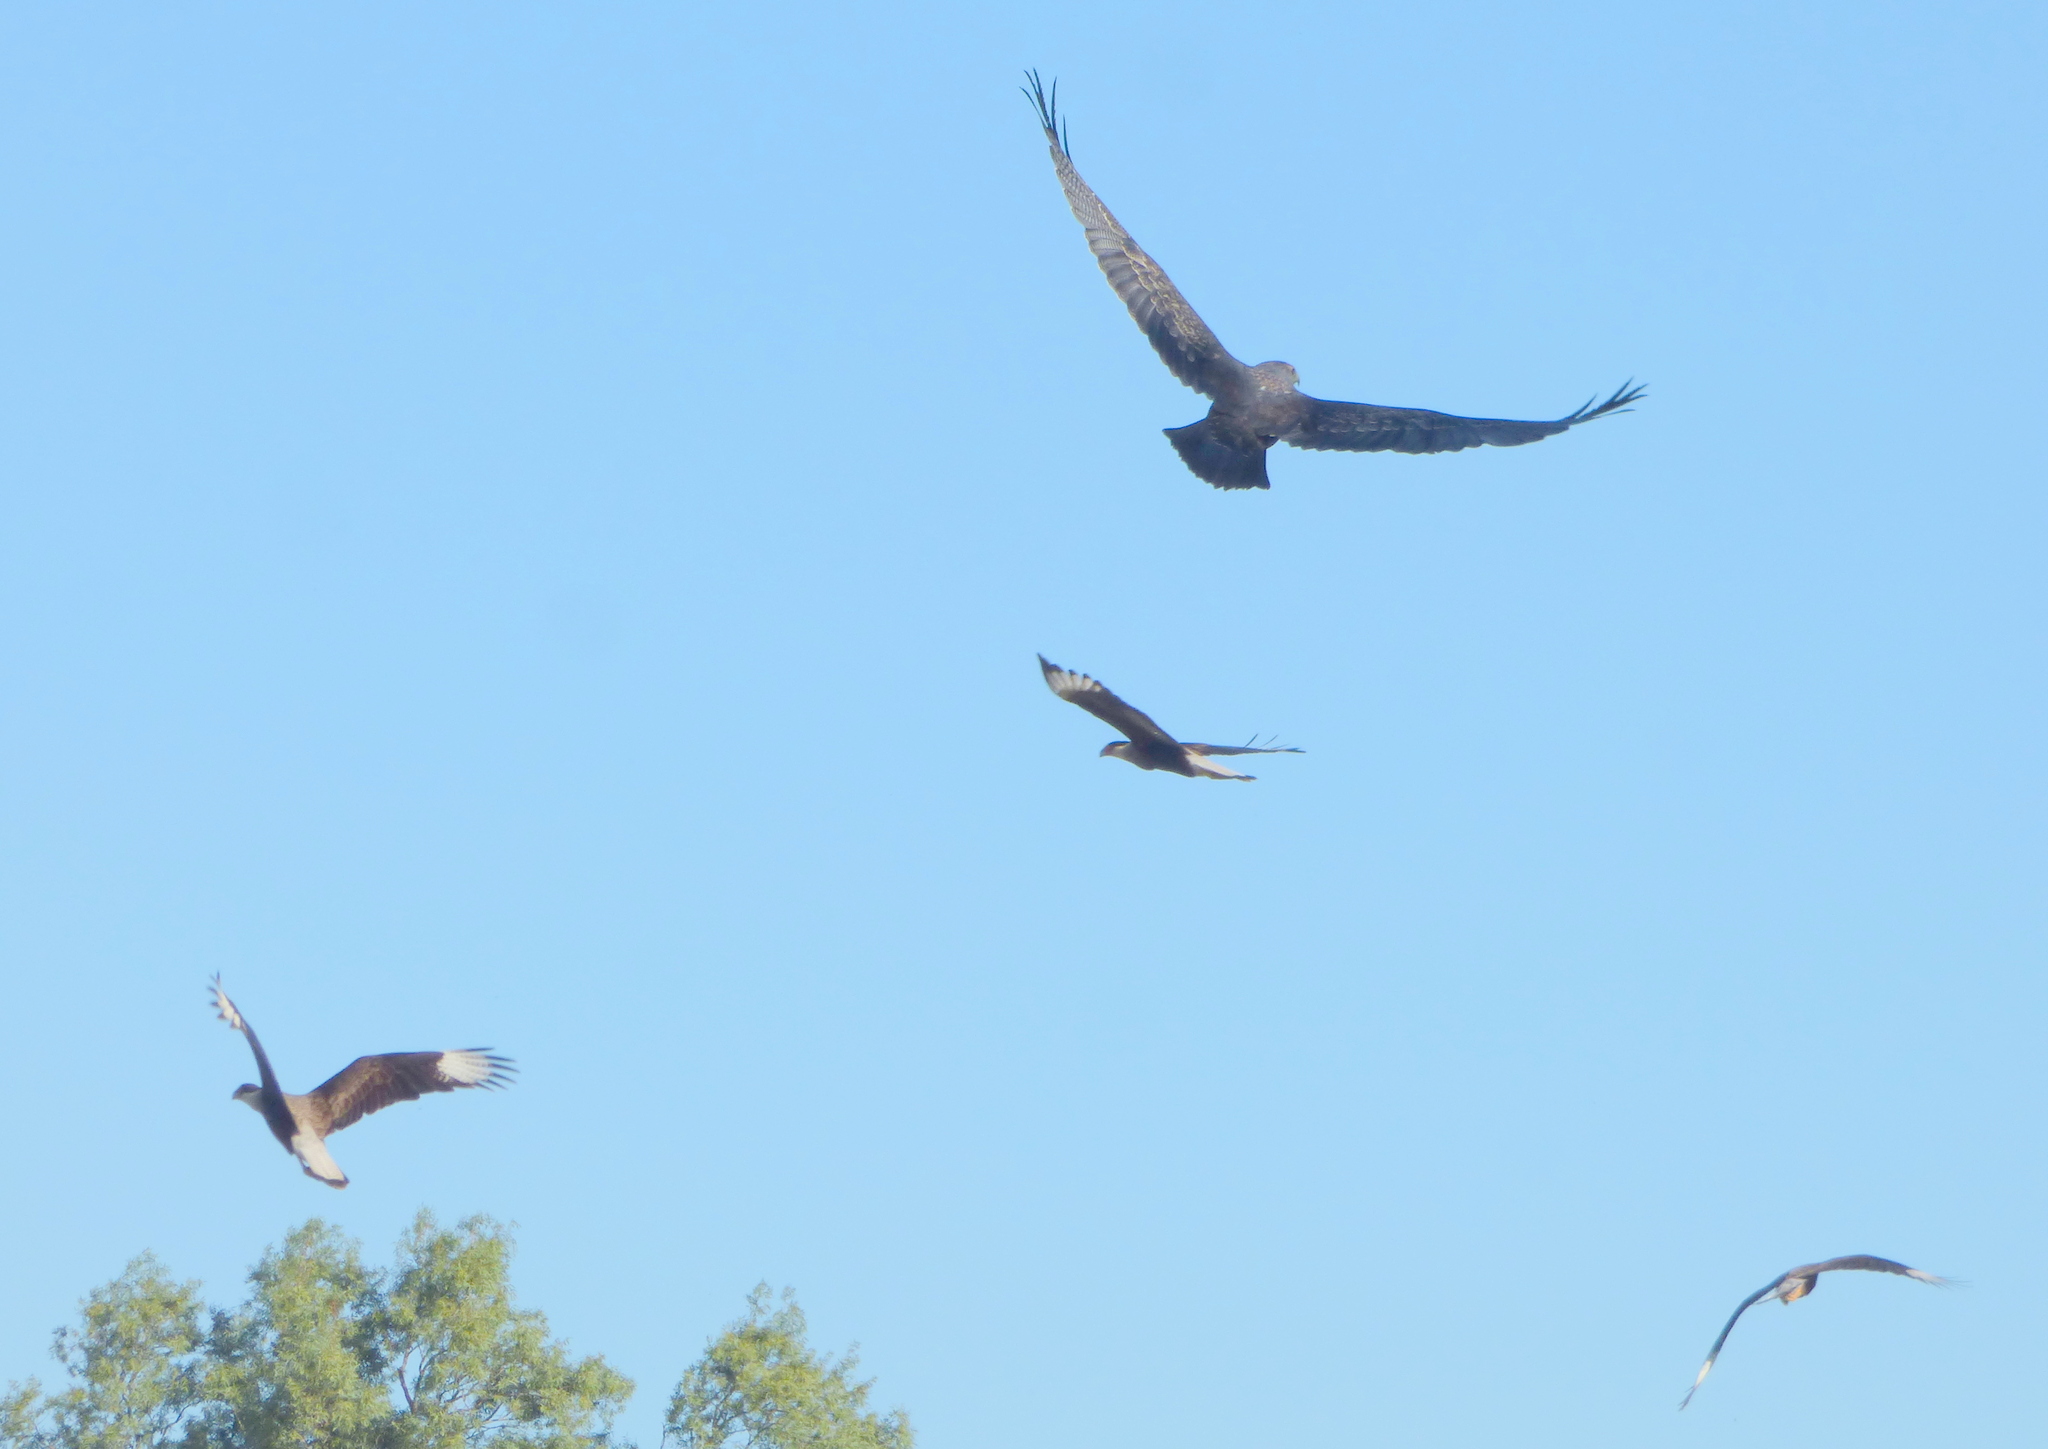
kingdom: Animalia
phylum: Chordata
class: Aves
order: Falconiformes
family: Falconidae
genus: Caracara
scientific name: Caracara plancus
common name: Southern caracara
